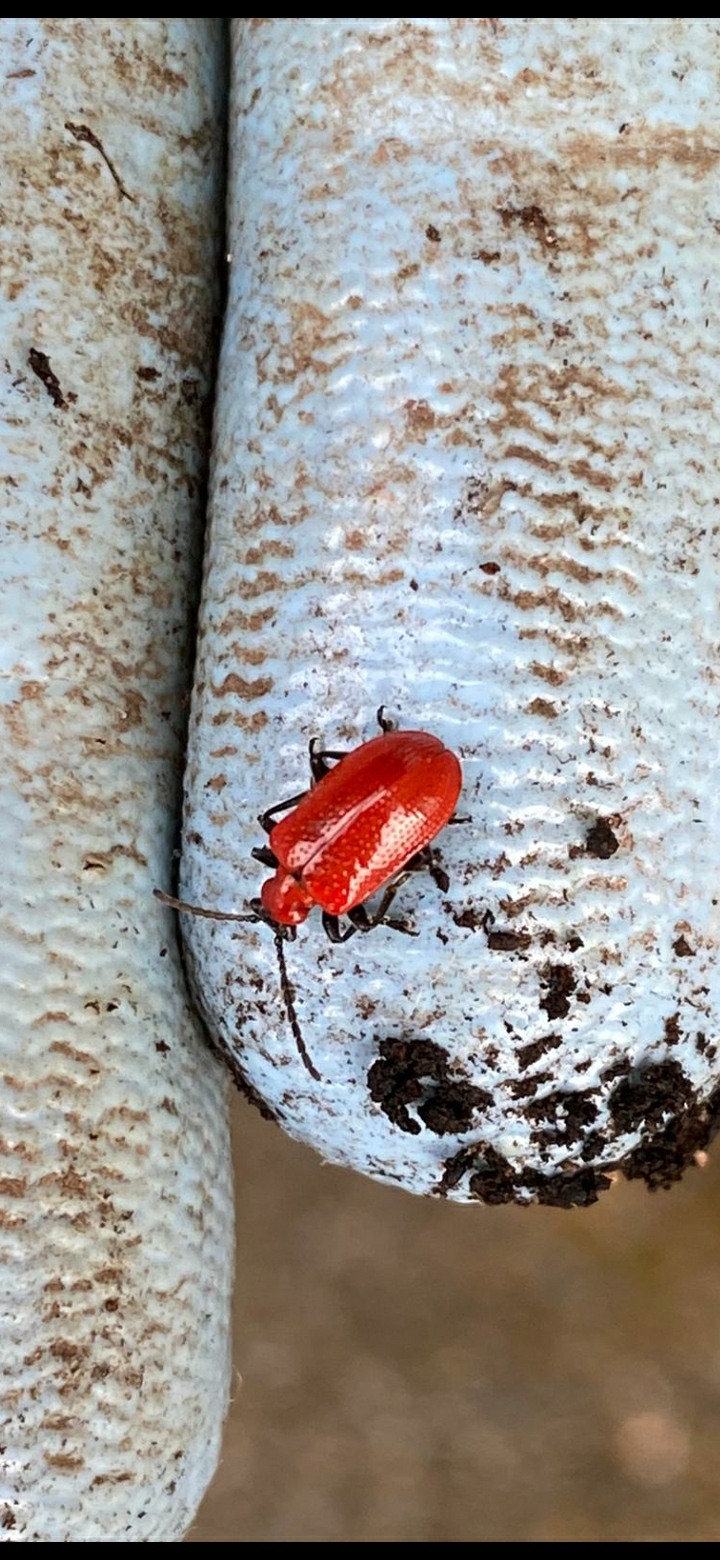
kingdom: Animalia
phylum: Arthropoda
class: Insecta
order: Coleoptera
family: Chrysomelidae
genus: Lilioceris
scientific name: Lilioceris lilii
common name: Lily beetle
